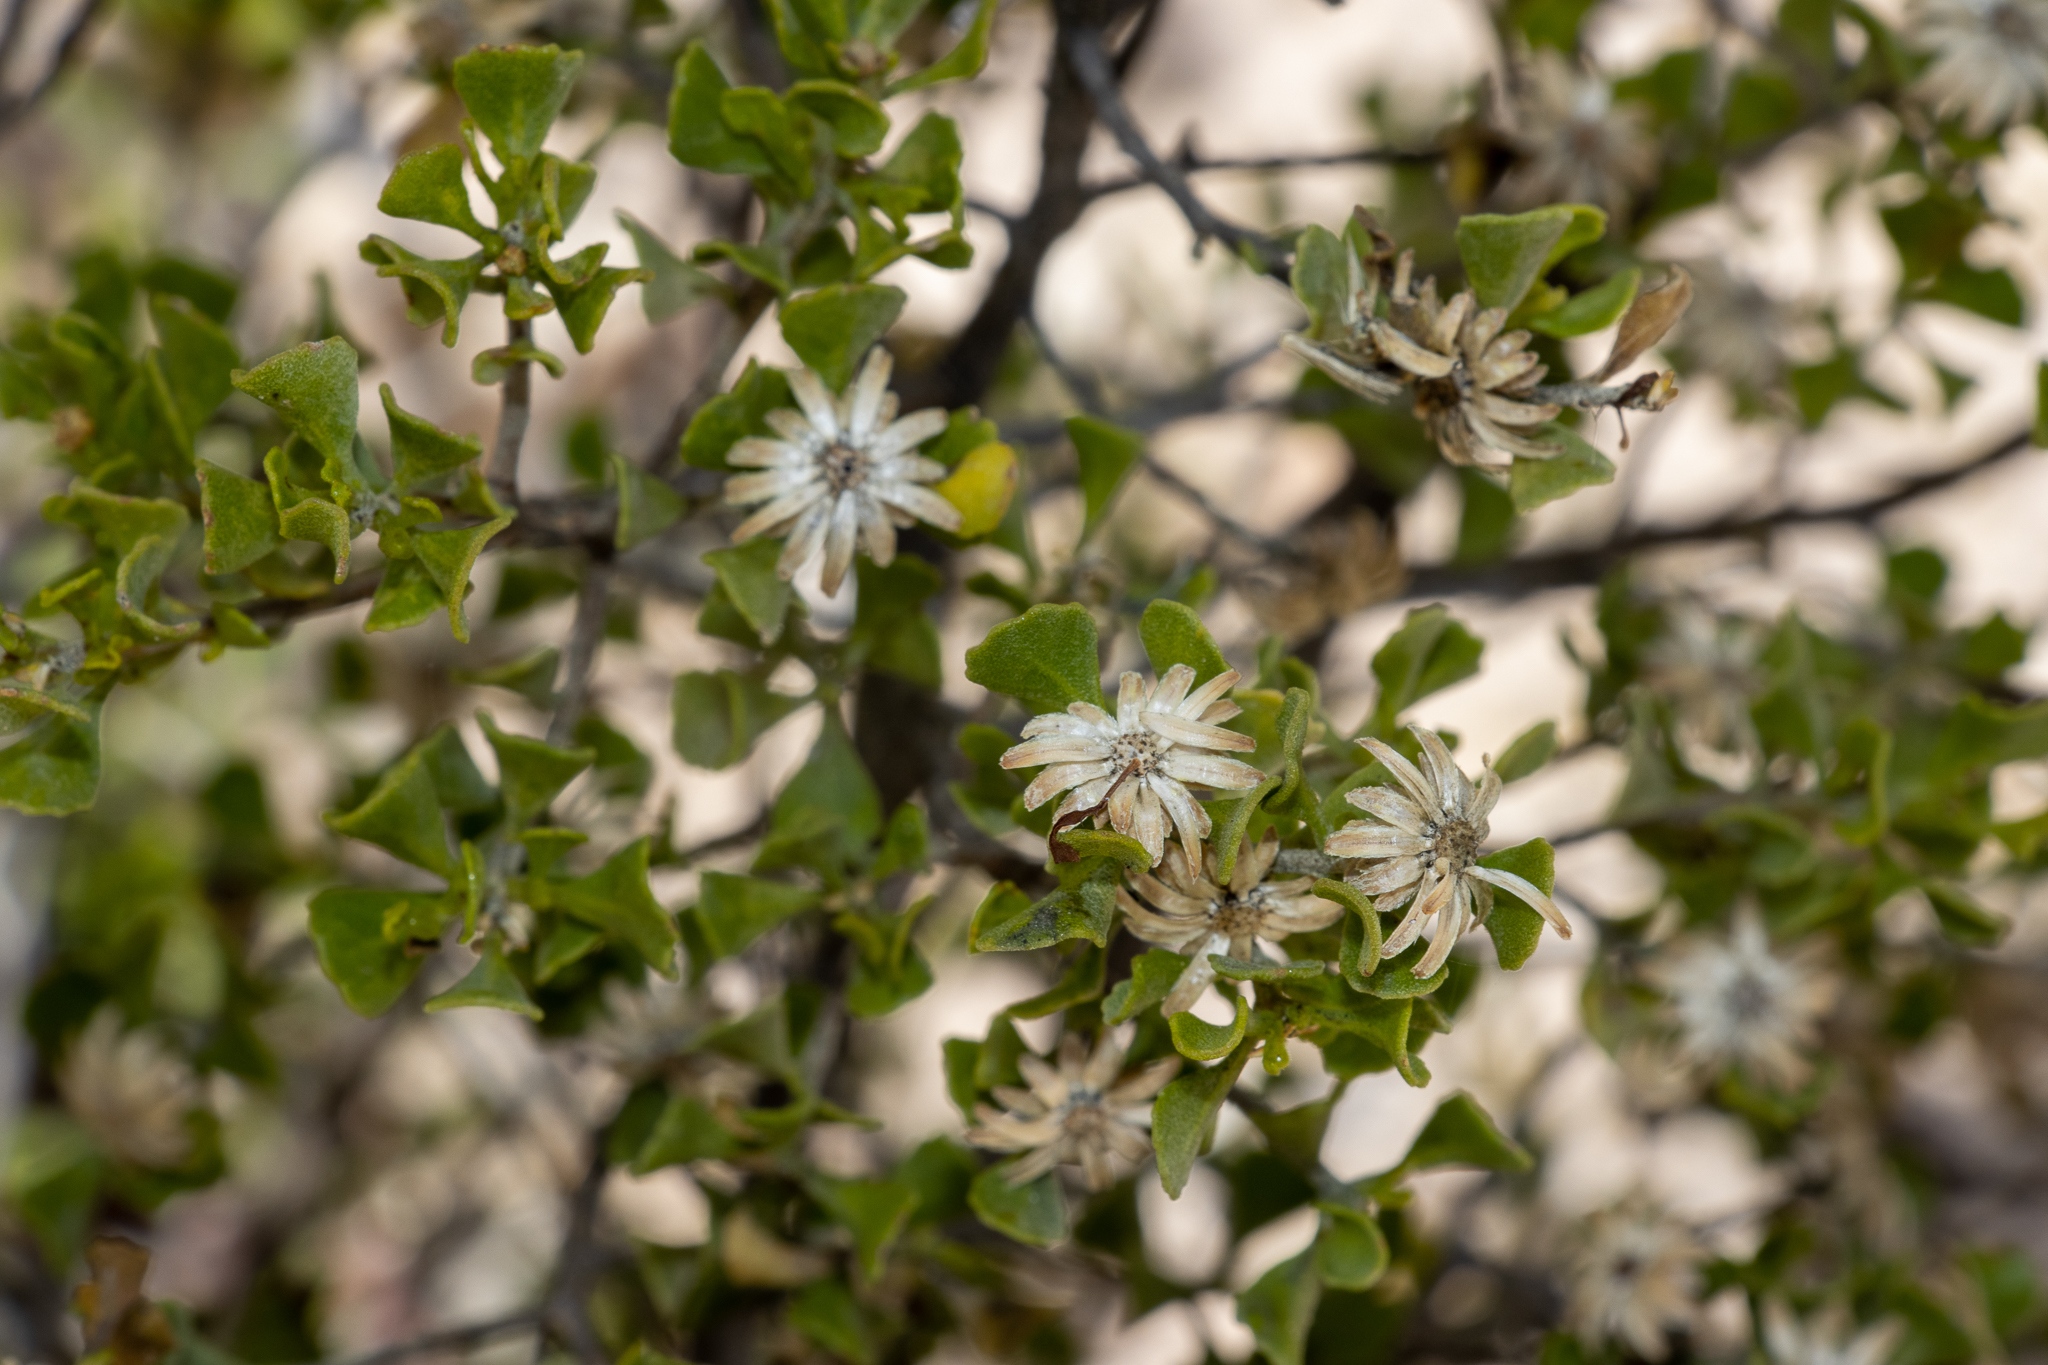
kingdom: Plantae
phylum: Tracheophyta
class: Magnoliopsida
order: Asterales
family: Asteraceae
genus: Walsholaria
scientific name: Walsholaria muelleri
